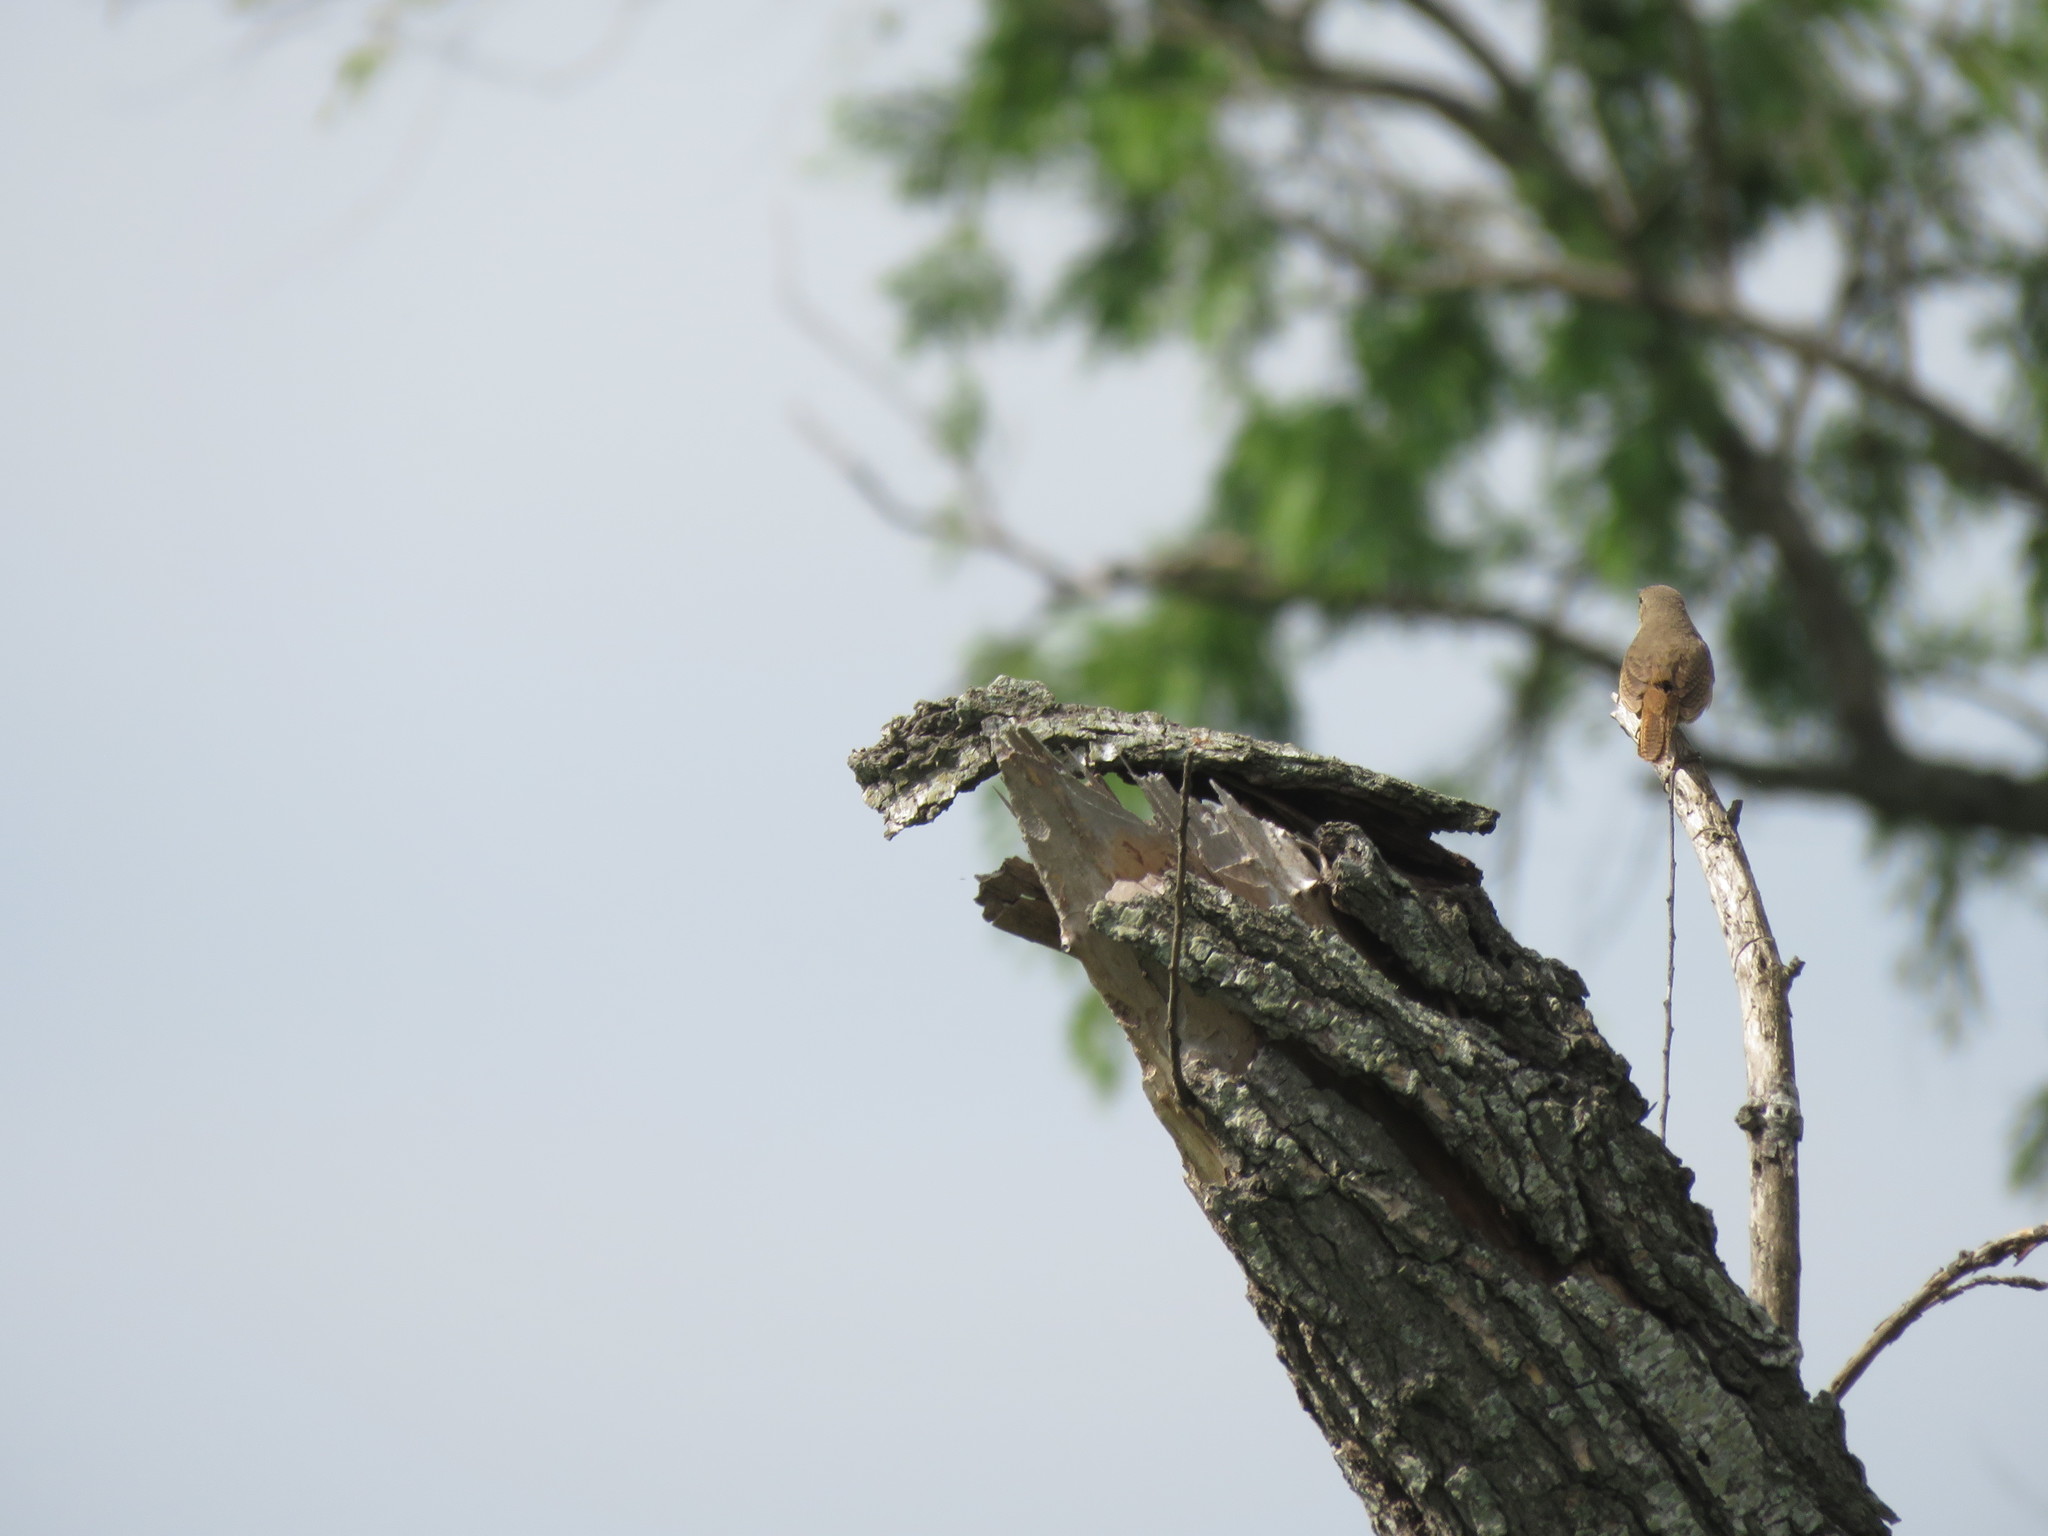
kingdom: Animalia
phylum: Chordata
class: Aves
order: Passeriformes
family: Troglodytidae
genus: Troglodytes
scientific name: Troglodytes aedon
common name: House wren
